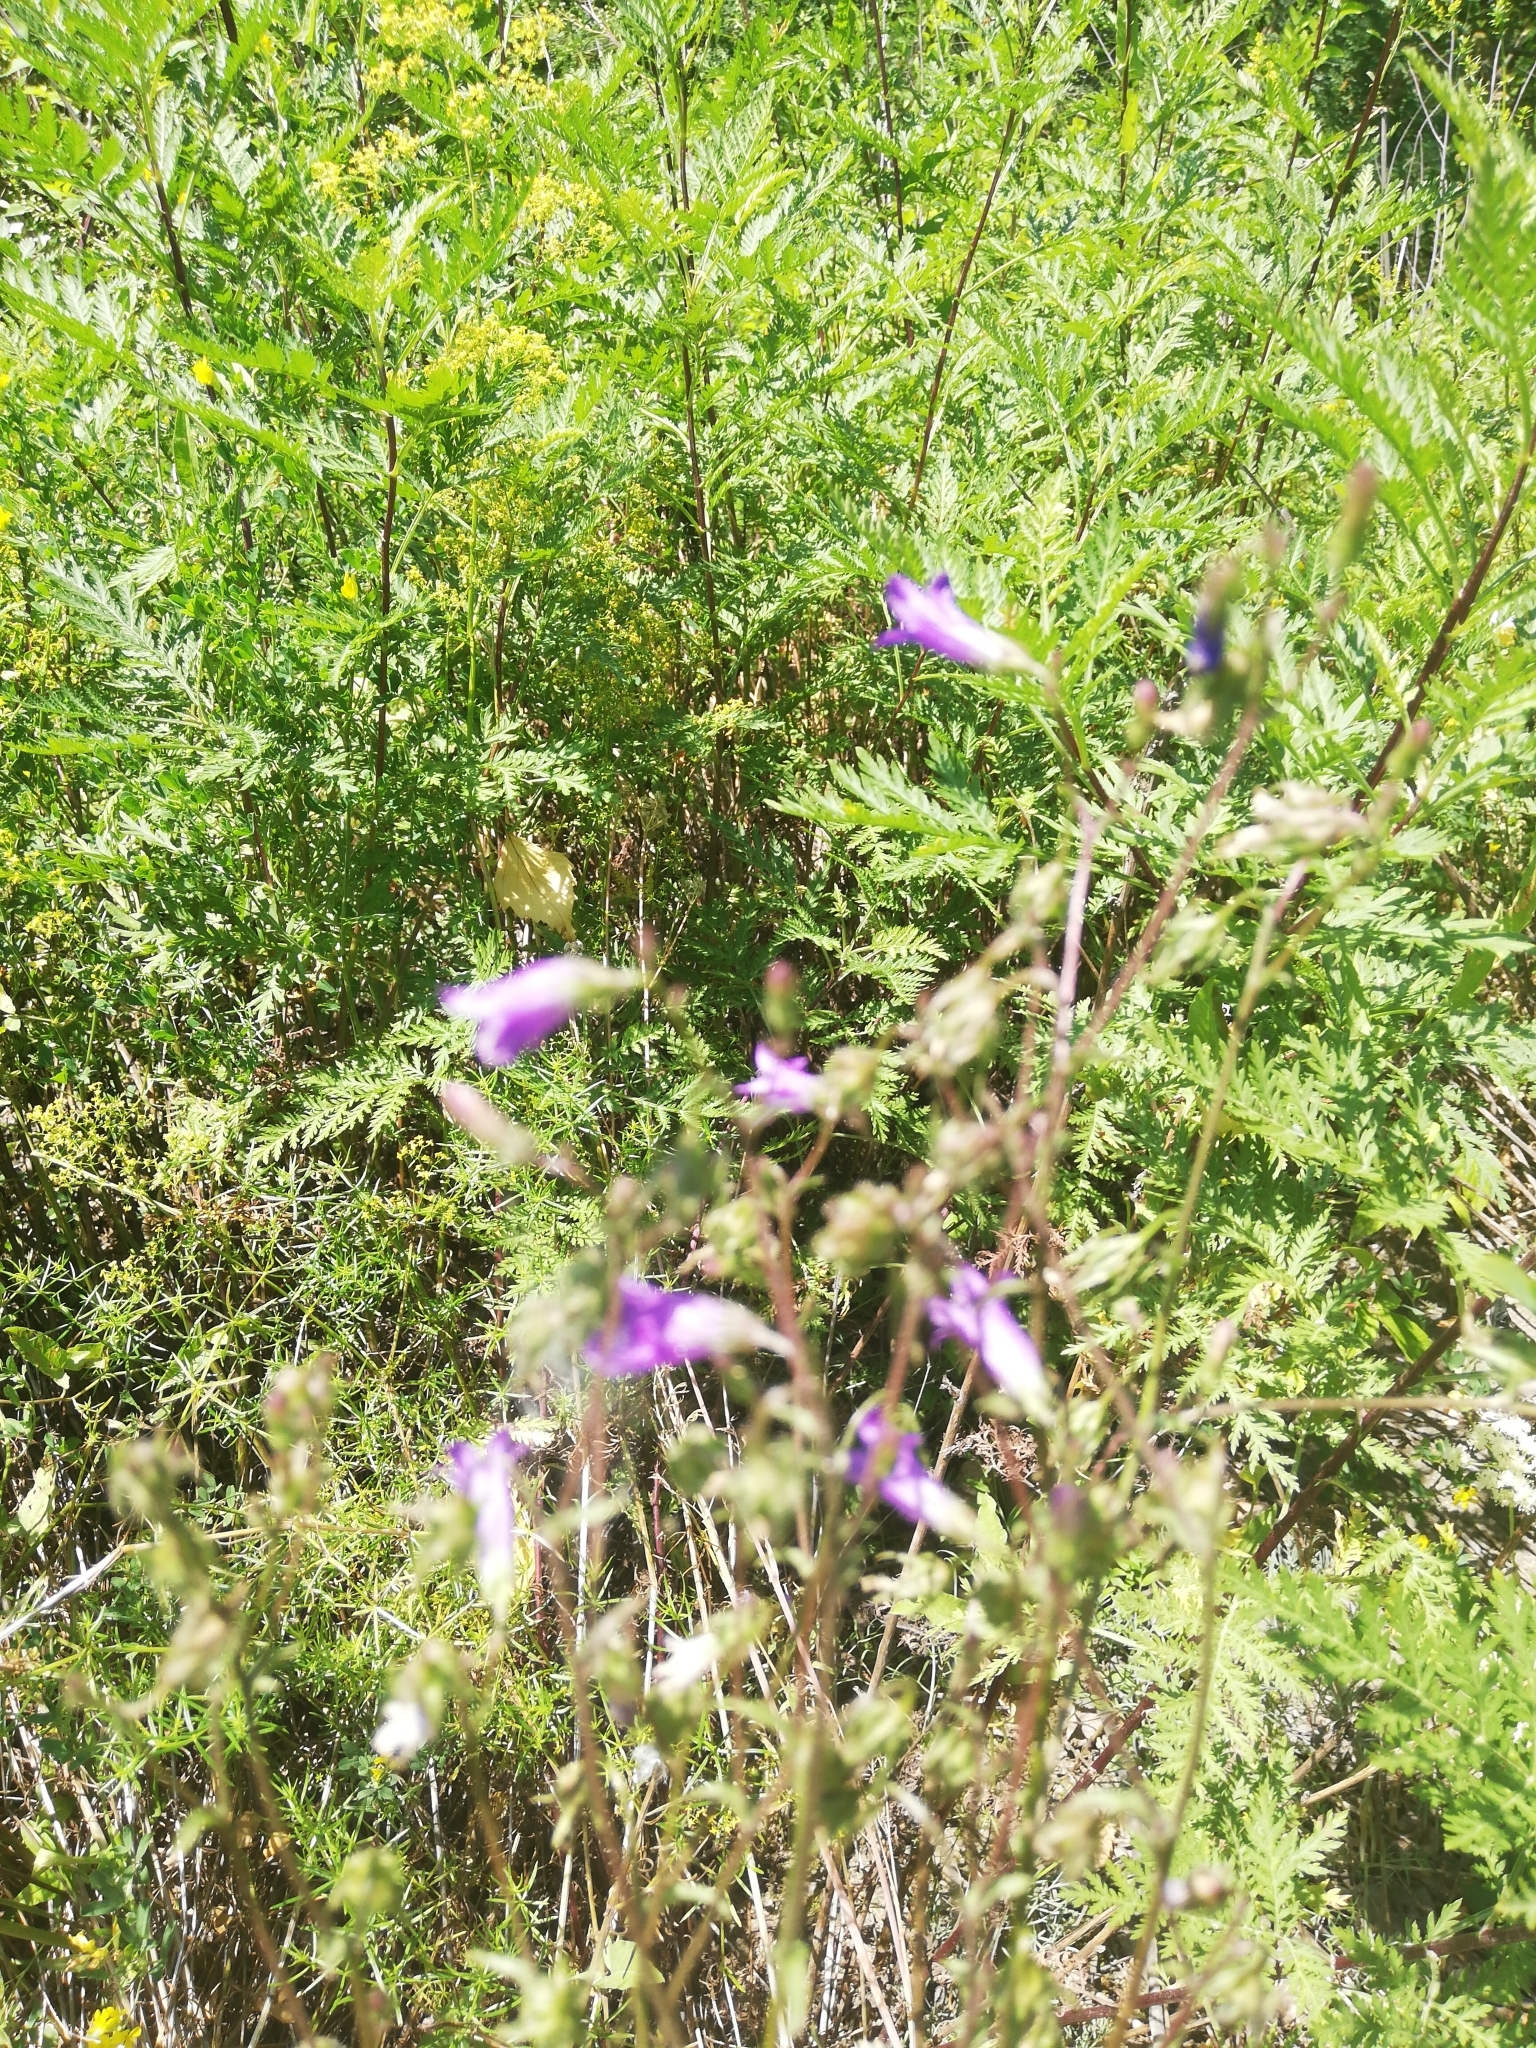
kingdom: Plantae
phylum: Tracheophyta
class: Magnoliopsida
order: Asterales
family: Campanulaceae
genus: Campanula
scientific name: Campanula sibirica
